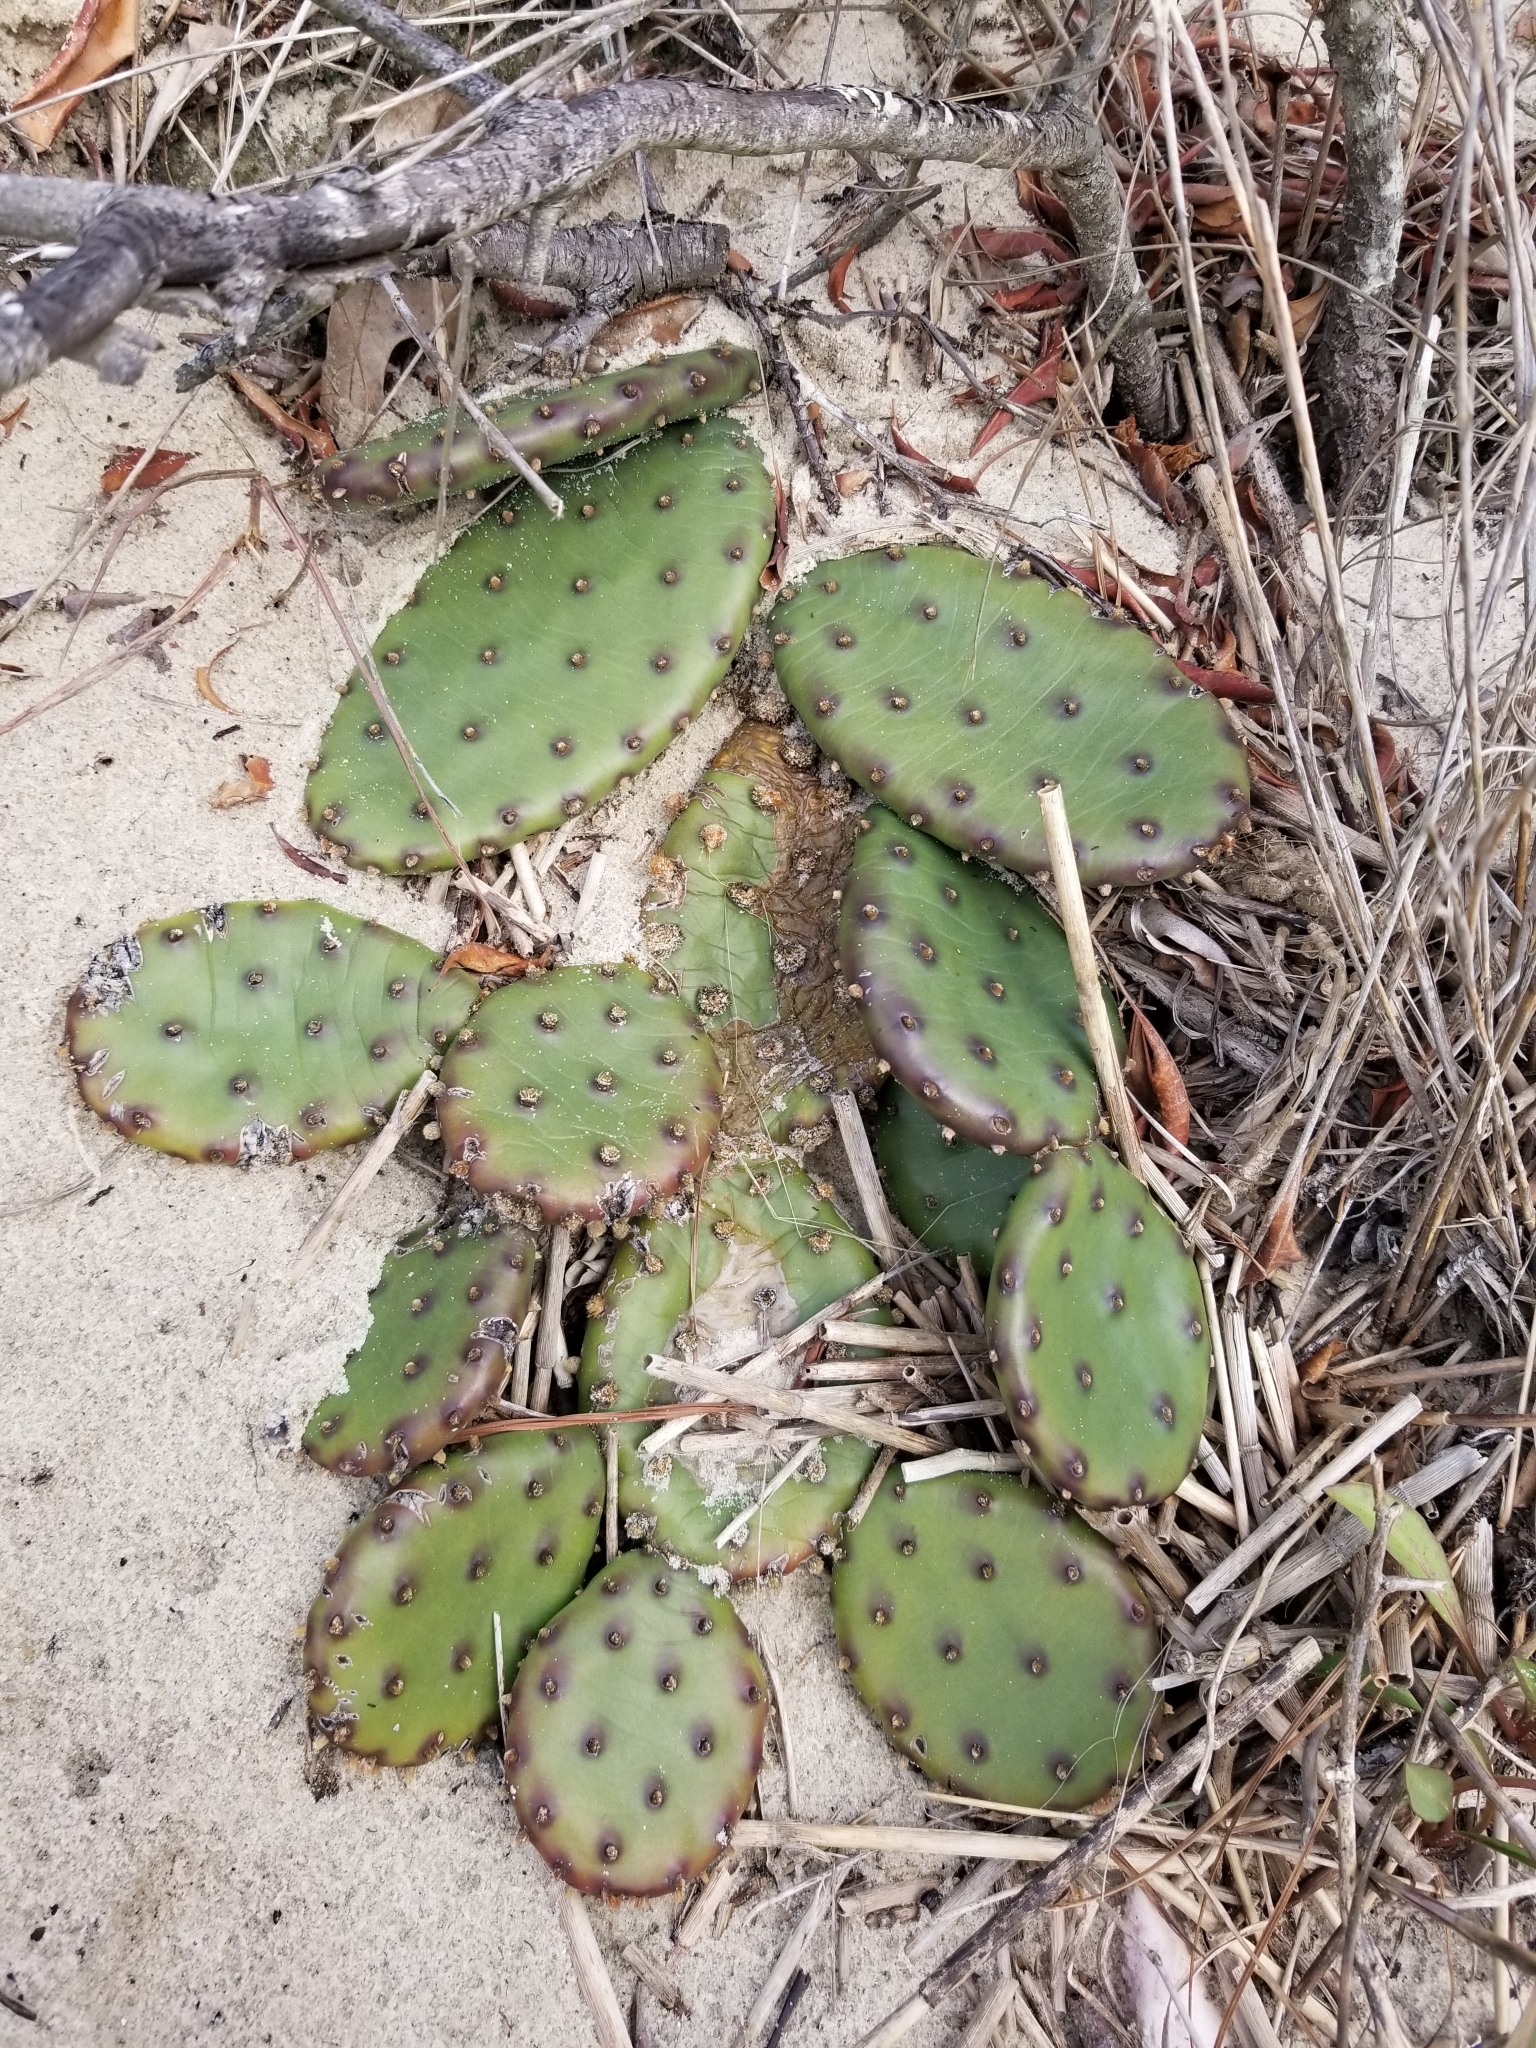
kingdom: Plantae
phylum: Tracheophyta
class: Magnoliopsida
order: Caryophyllales
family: Cactaceae
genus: Opuntia
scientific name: Opuntia humifusa
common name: Eastern prickly-pear
